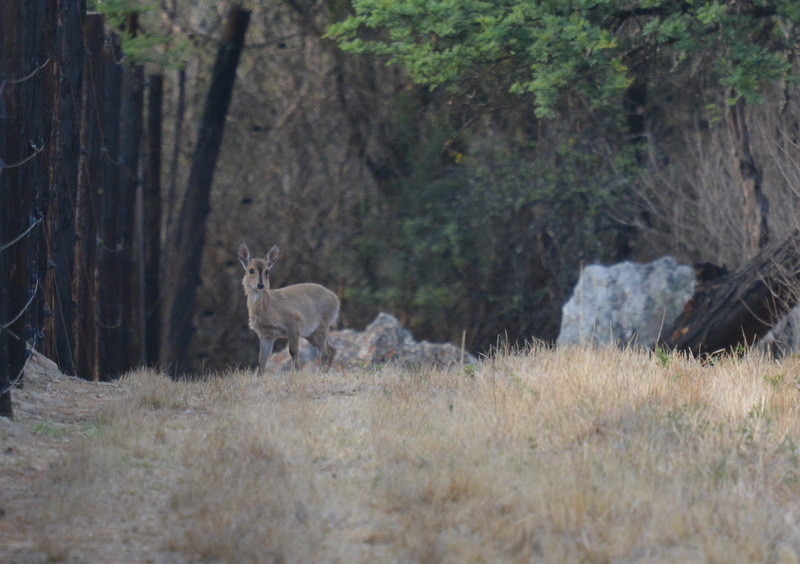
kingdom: Animalia
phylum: Chordata
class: Mammalia
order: Artiodactyla
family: Bovidae
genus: Sylvicapra
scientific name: Sylvicapra grimmia
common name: Bush duiker
